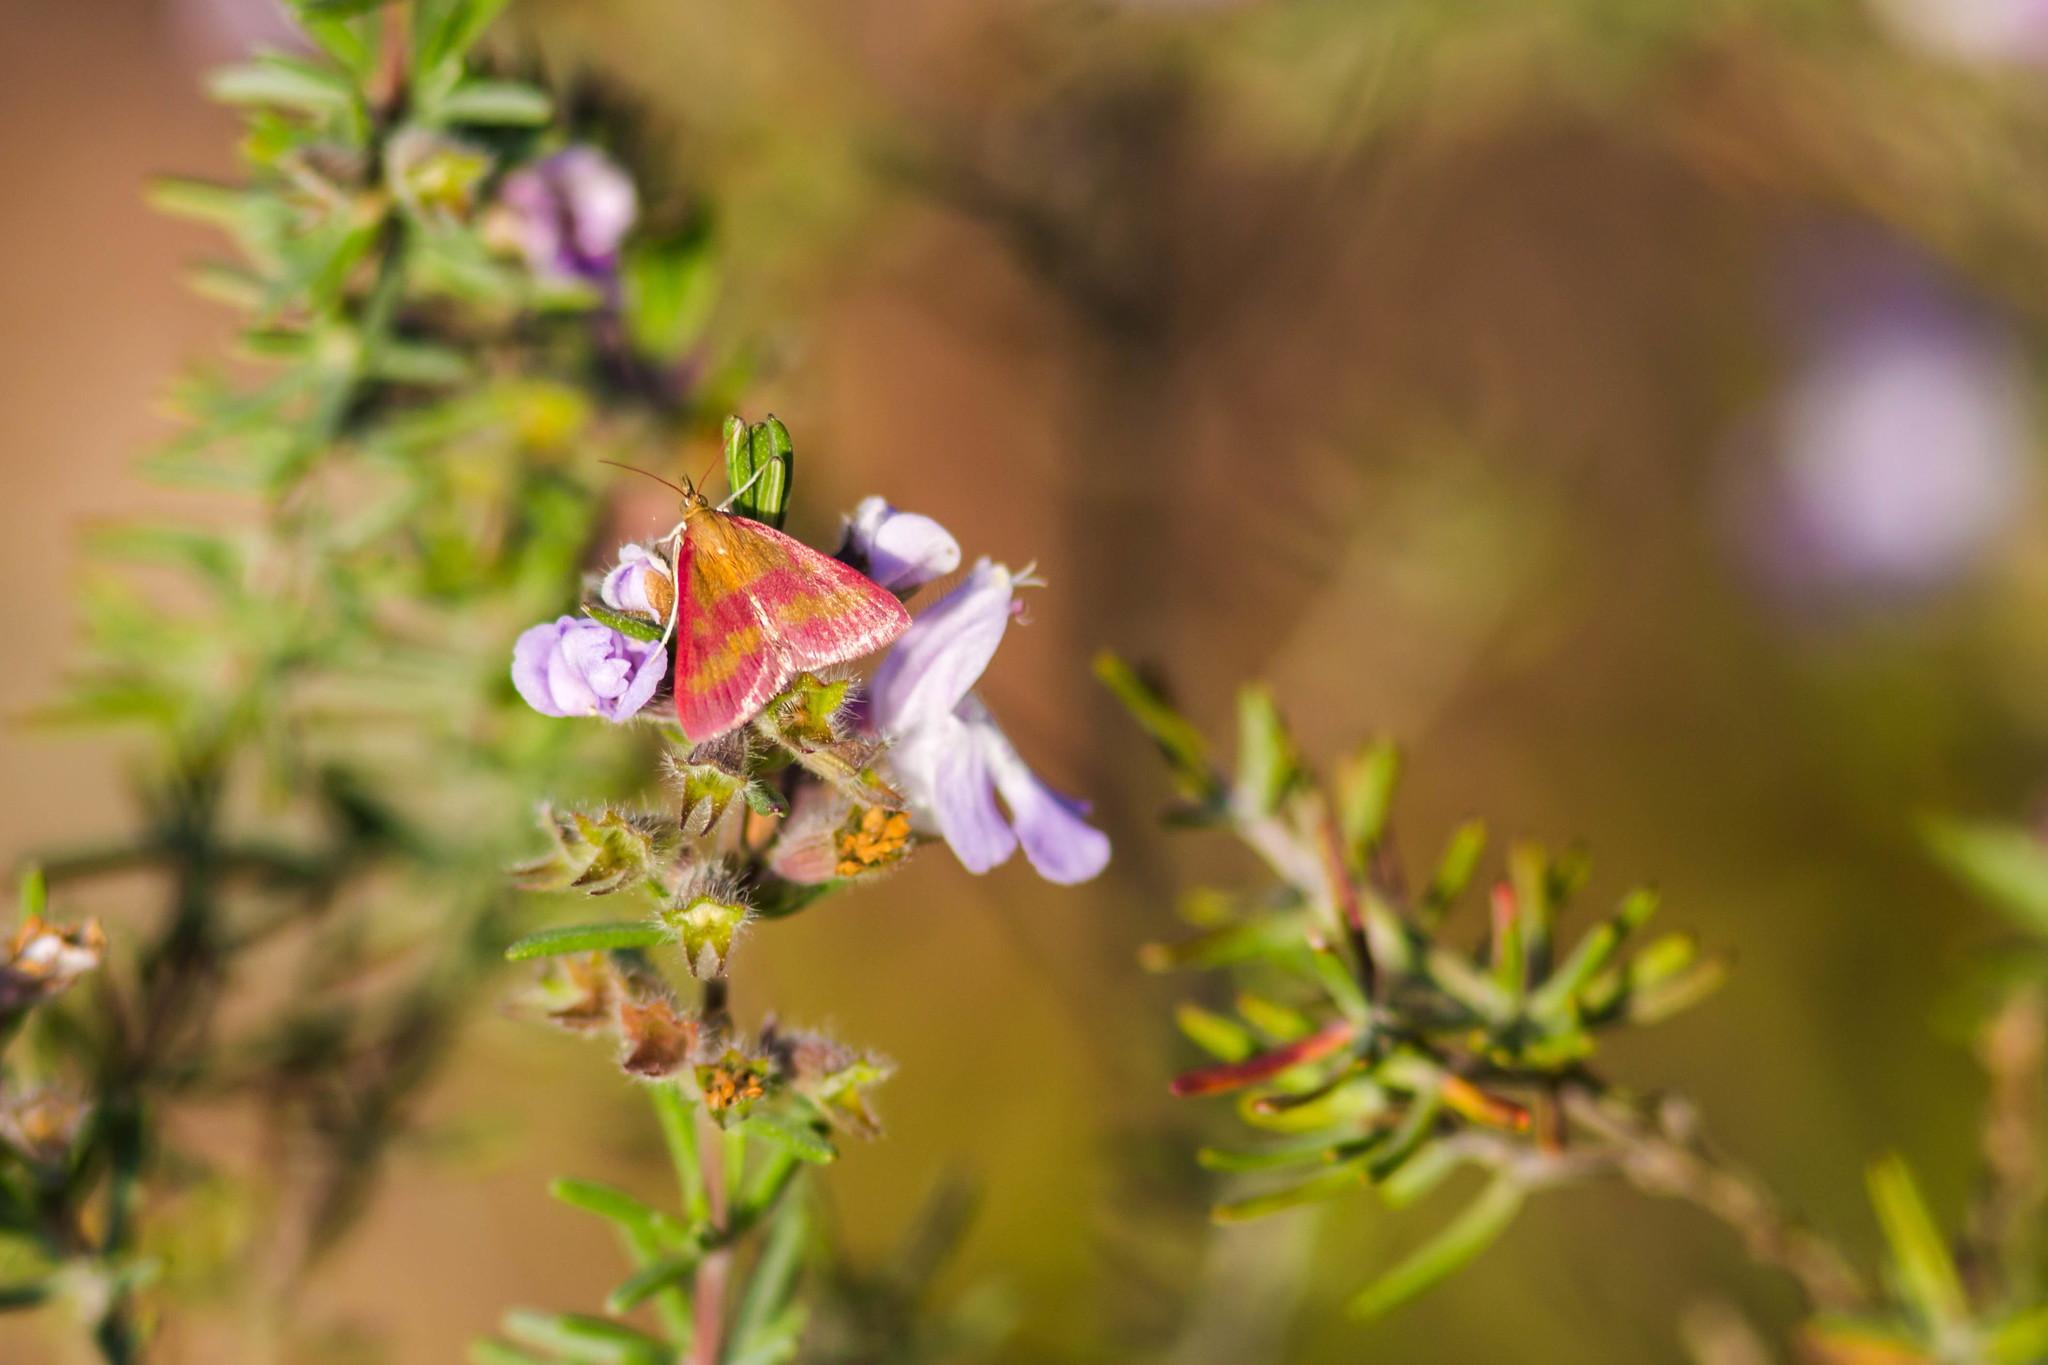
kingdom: Animalia
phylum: Arthropoda
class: Insecta
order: Lepidoptera
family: Crambidae
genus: Pyrausta
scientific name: Pyrausta laticlavia
